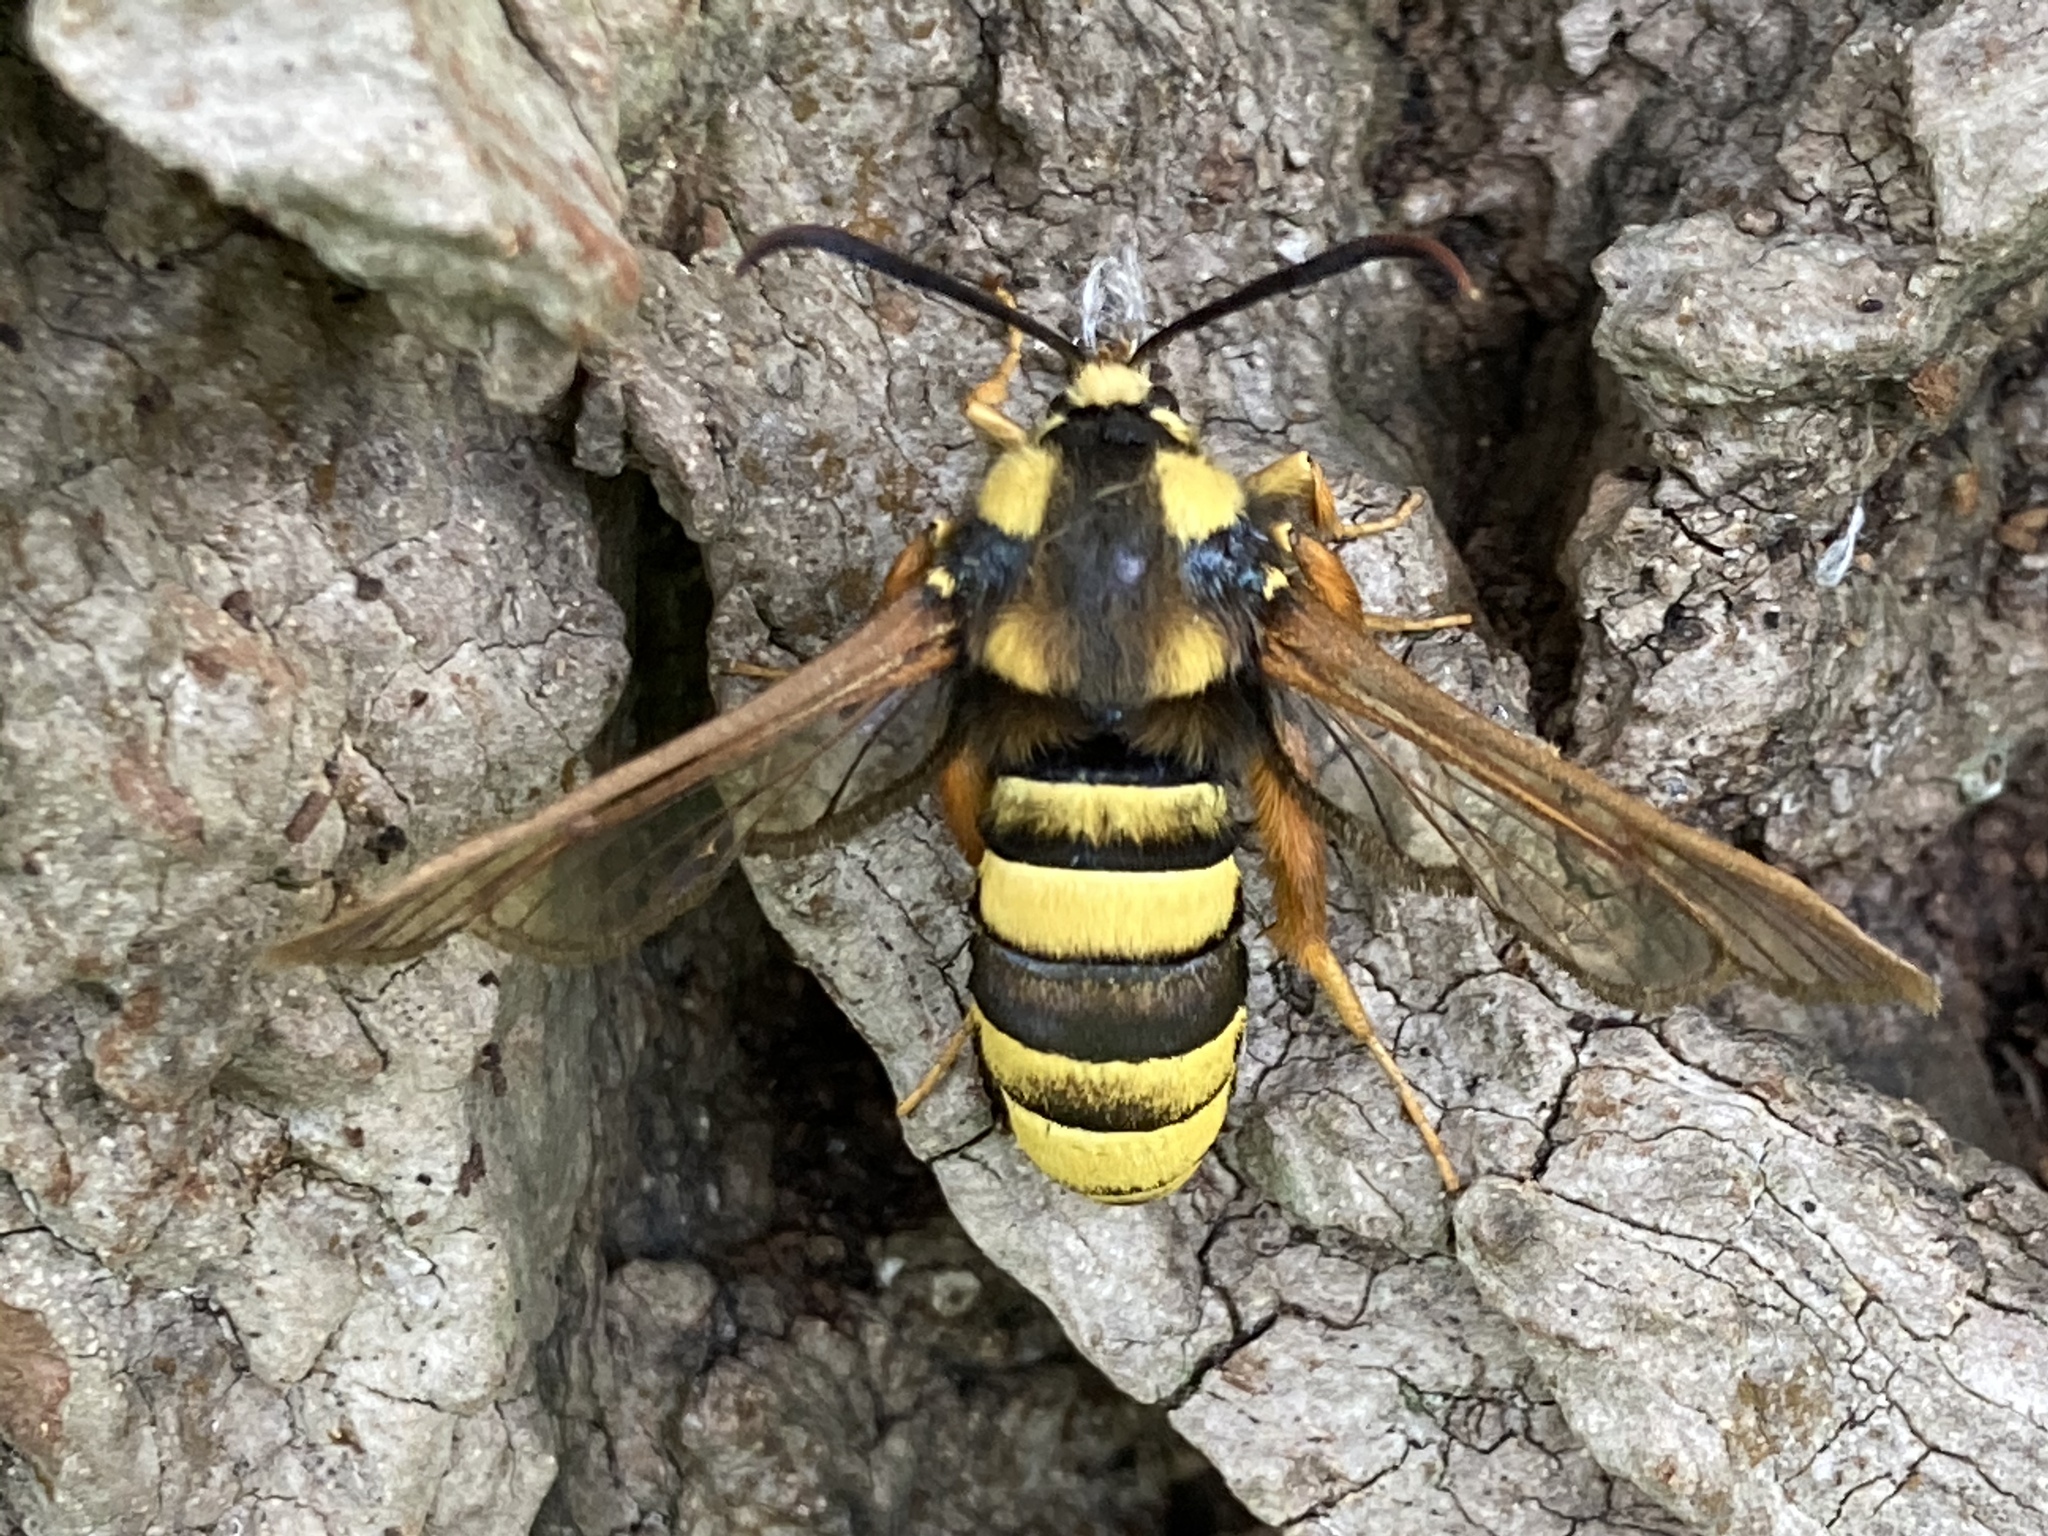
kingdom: Animalia
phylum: Arthropoda
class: Insecta
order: Lepidoptera
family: Sesiidae
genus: Sesia
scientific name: Sesia apiformis
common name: Hornet moth
